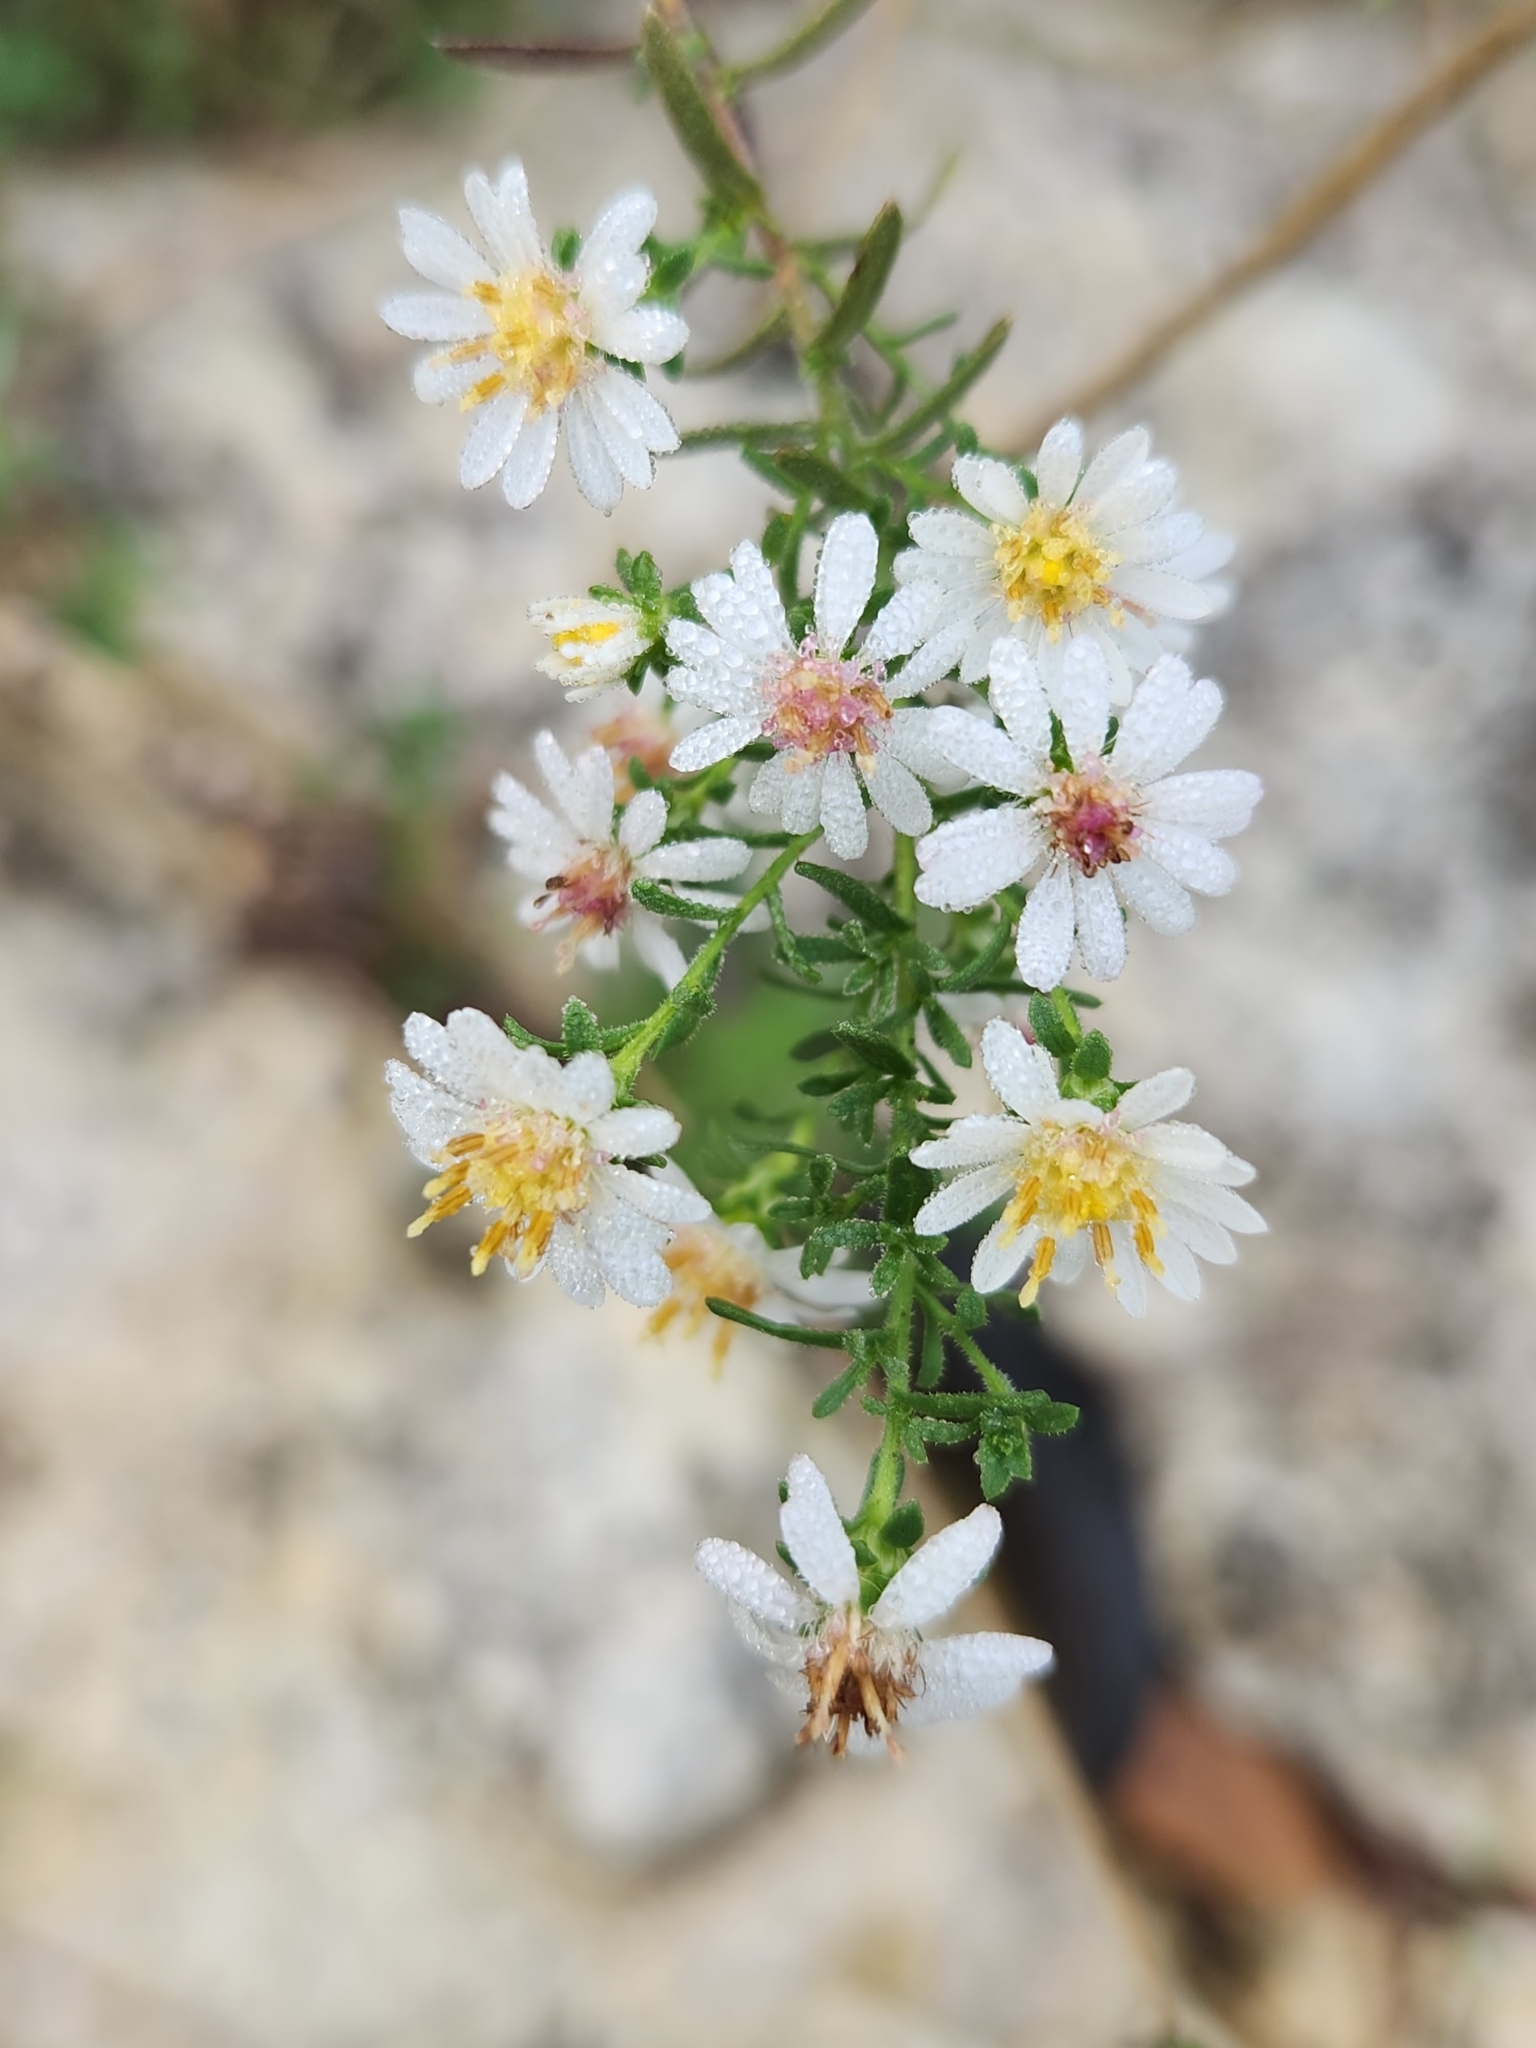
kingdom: Plantae
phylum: Tracheophyta
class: Magnoliopsida
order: Asterales
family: Asteraceae
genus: Symphyotrichum
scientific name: Symphyotrichum ericoides
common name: Heath aster
